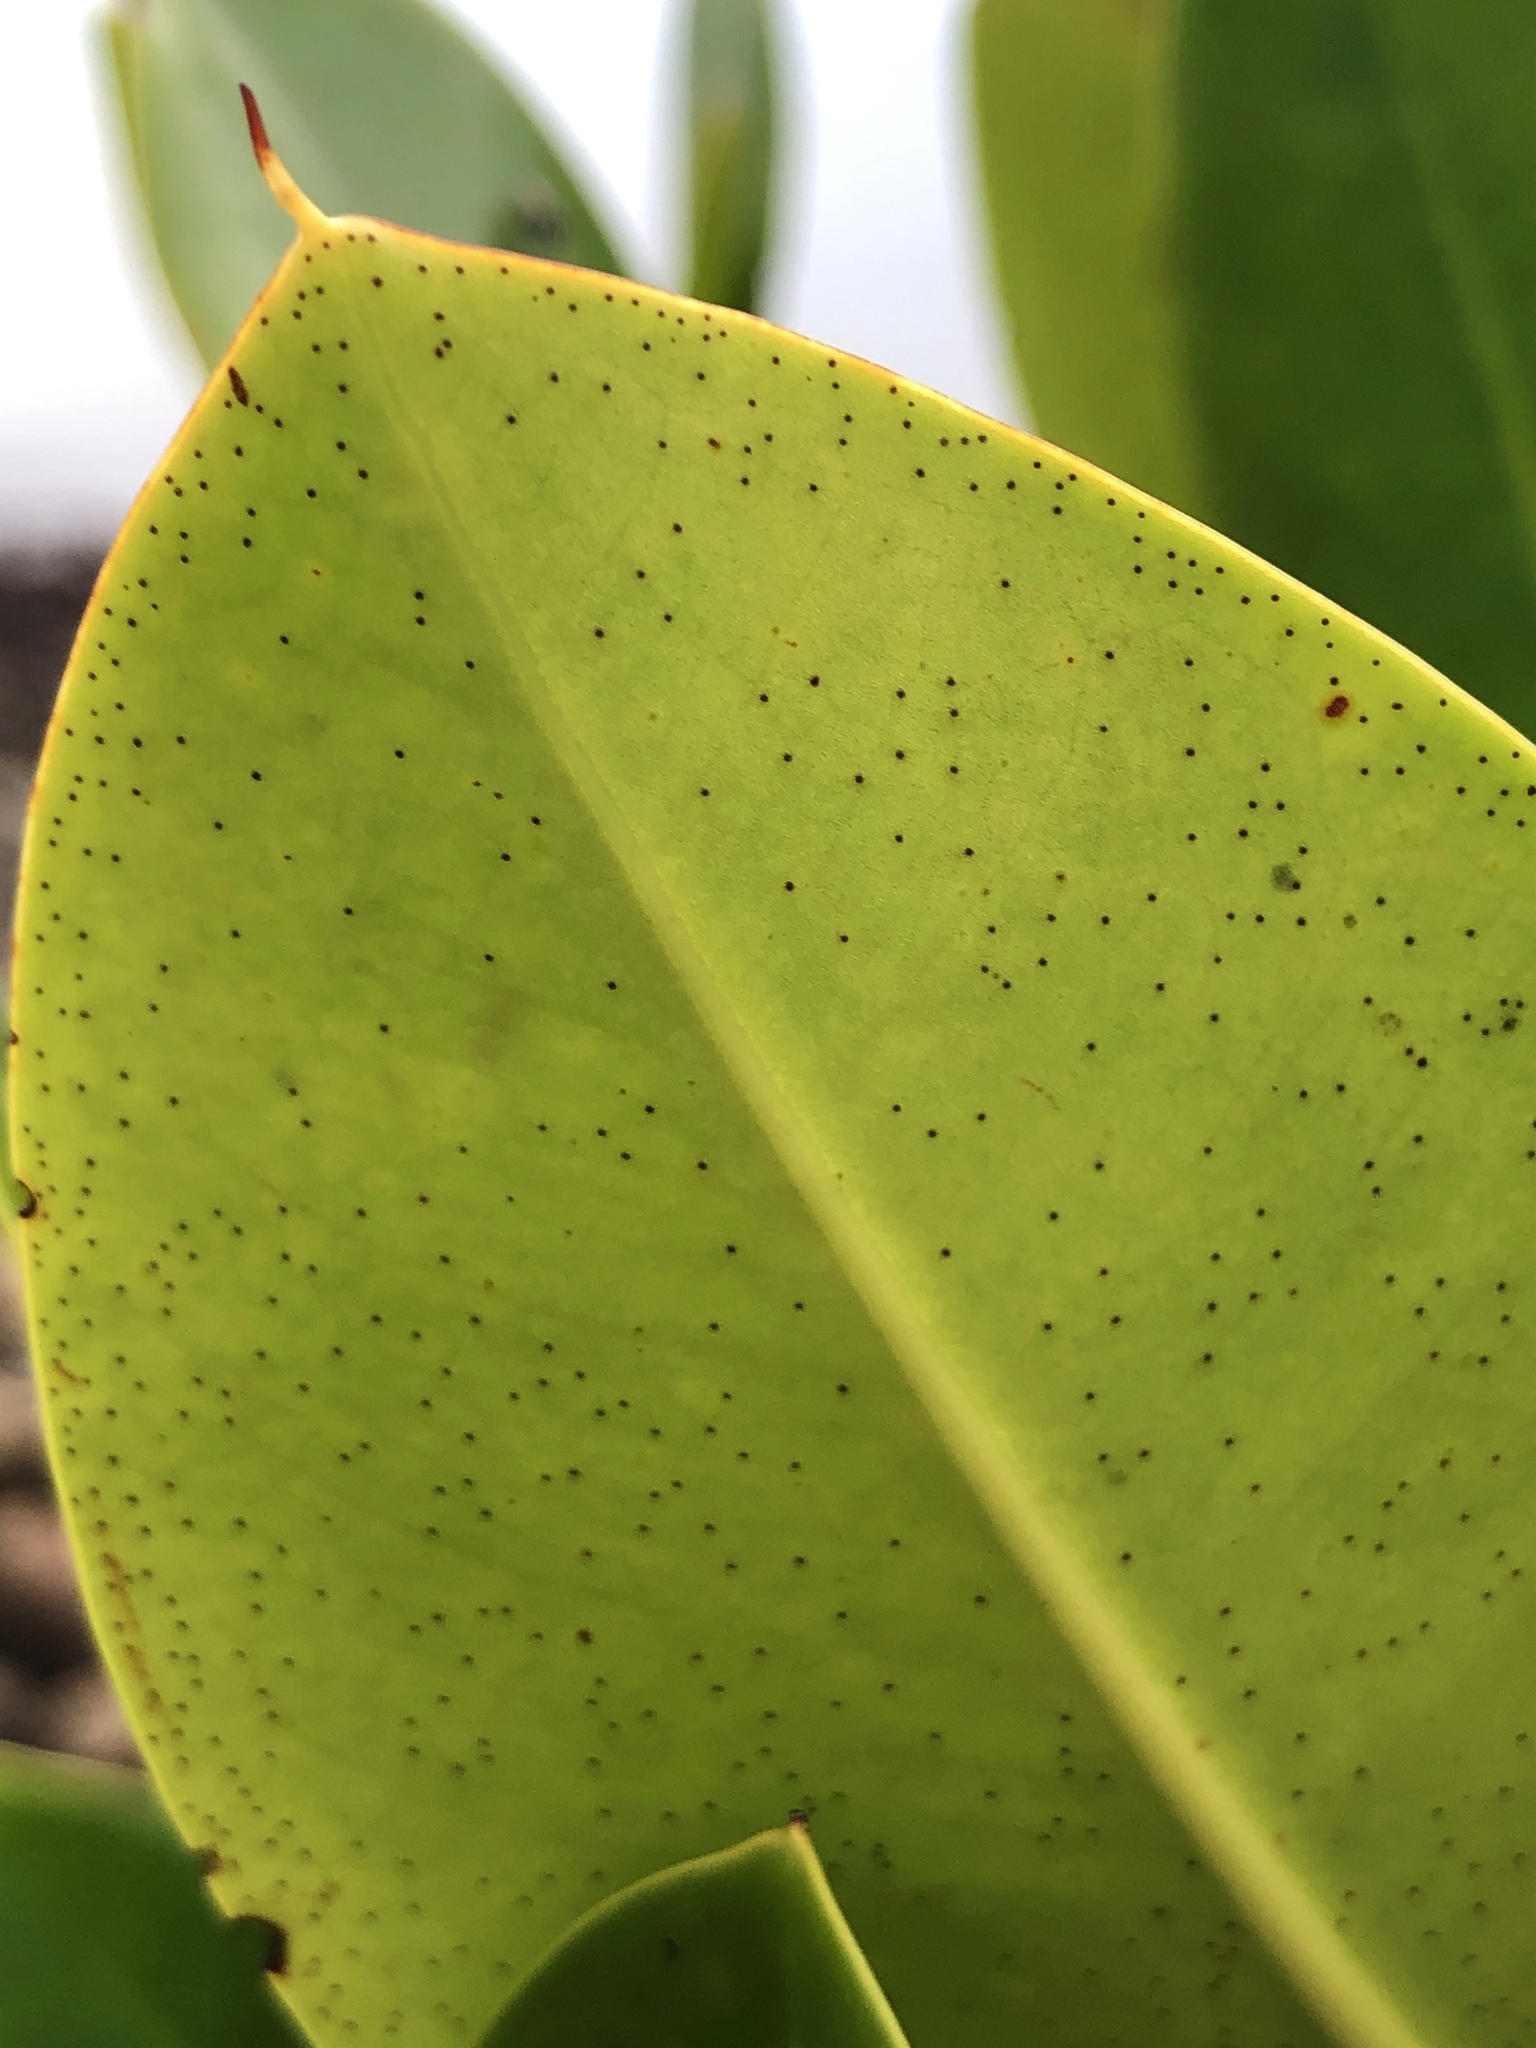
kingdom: Plantae
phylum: Tracheophyta
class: Magnoliopsida
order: Malpighiales
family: Rhizophoraceae
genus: Rhizophora
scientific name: Rhizophora stylosa
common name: Red mangrove
